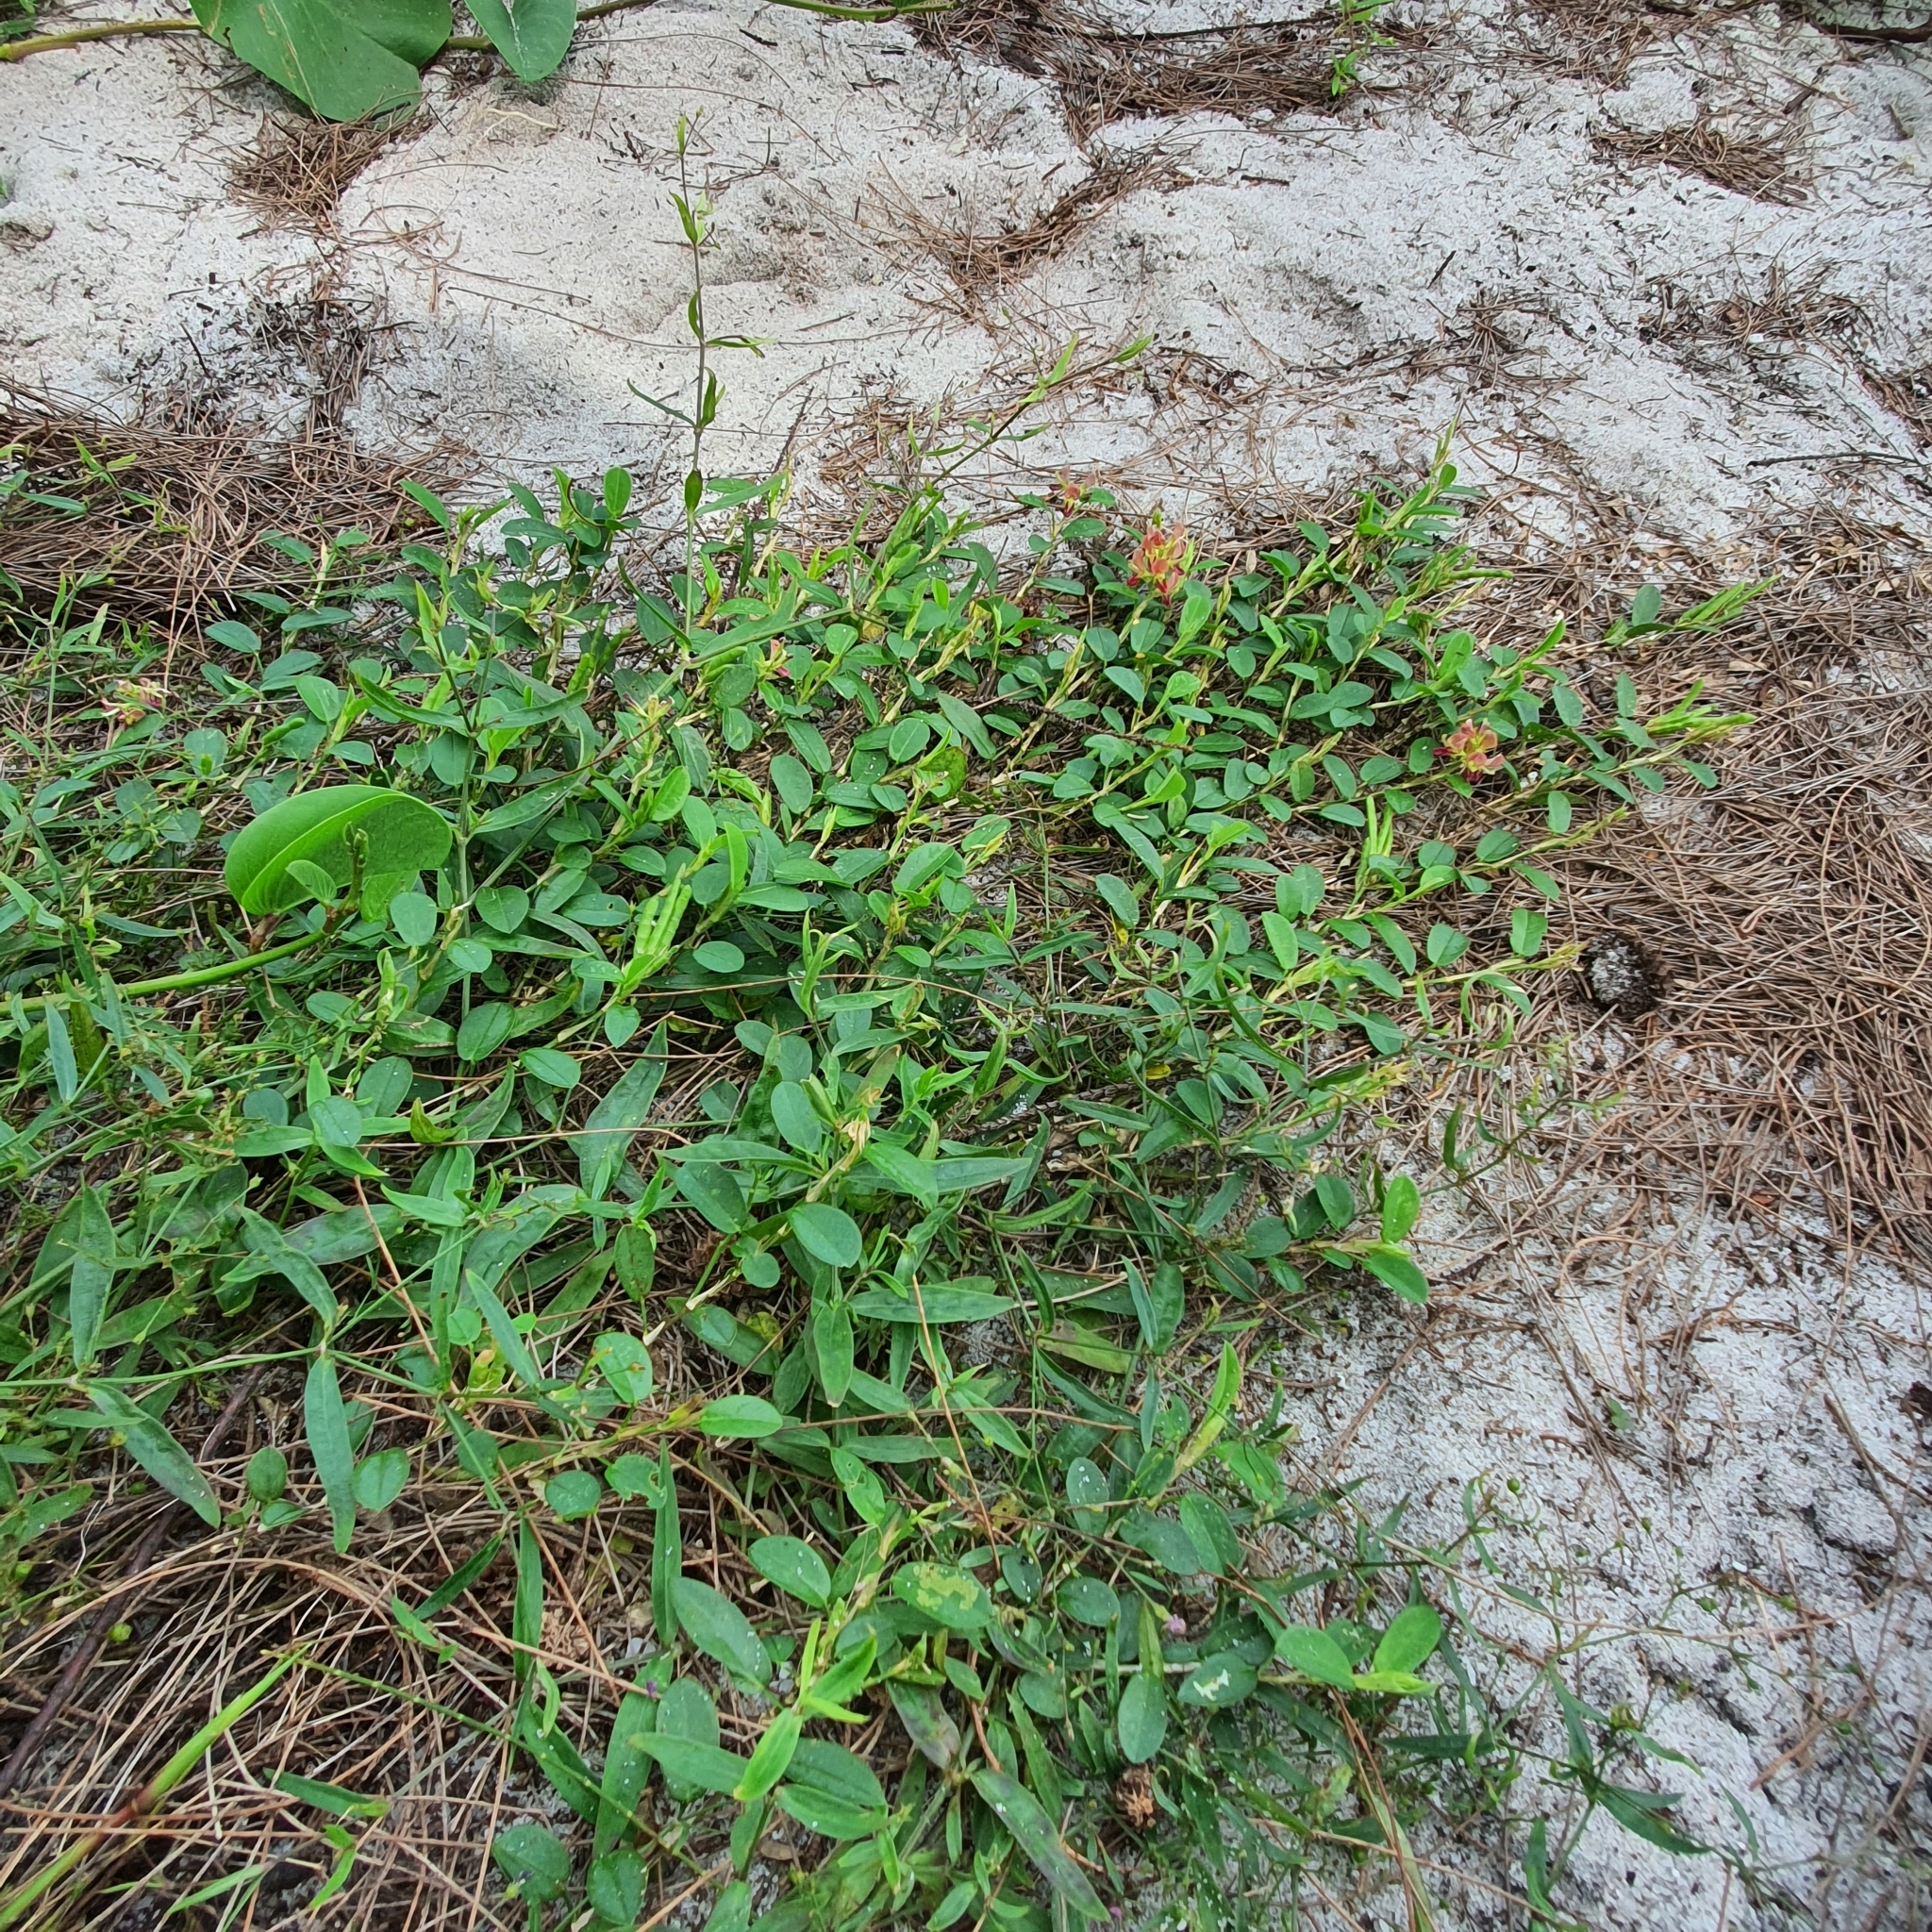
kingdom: Plantae
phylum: Tracheophyta
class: Magnoliopsida
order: Fabales
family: Fabaceae
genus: Alysicarpus
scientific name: Alysicarpus vaginalis
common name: White moneywort
